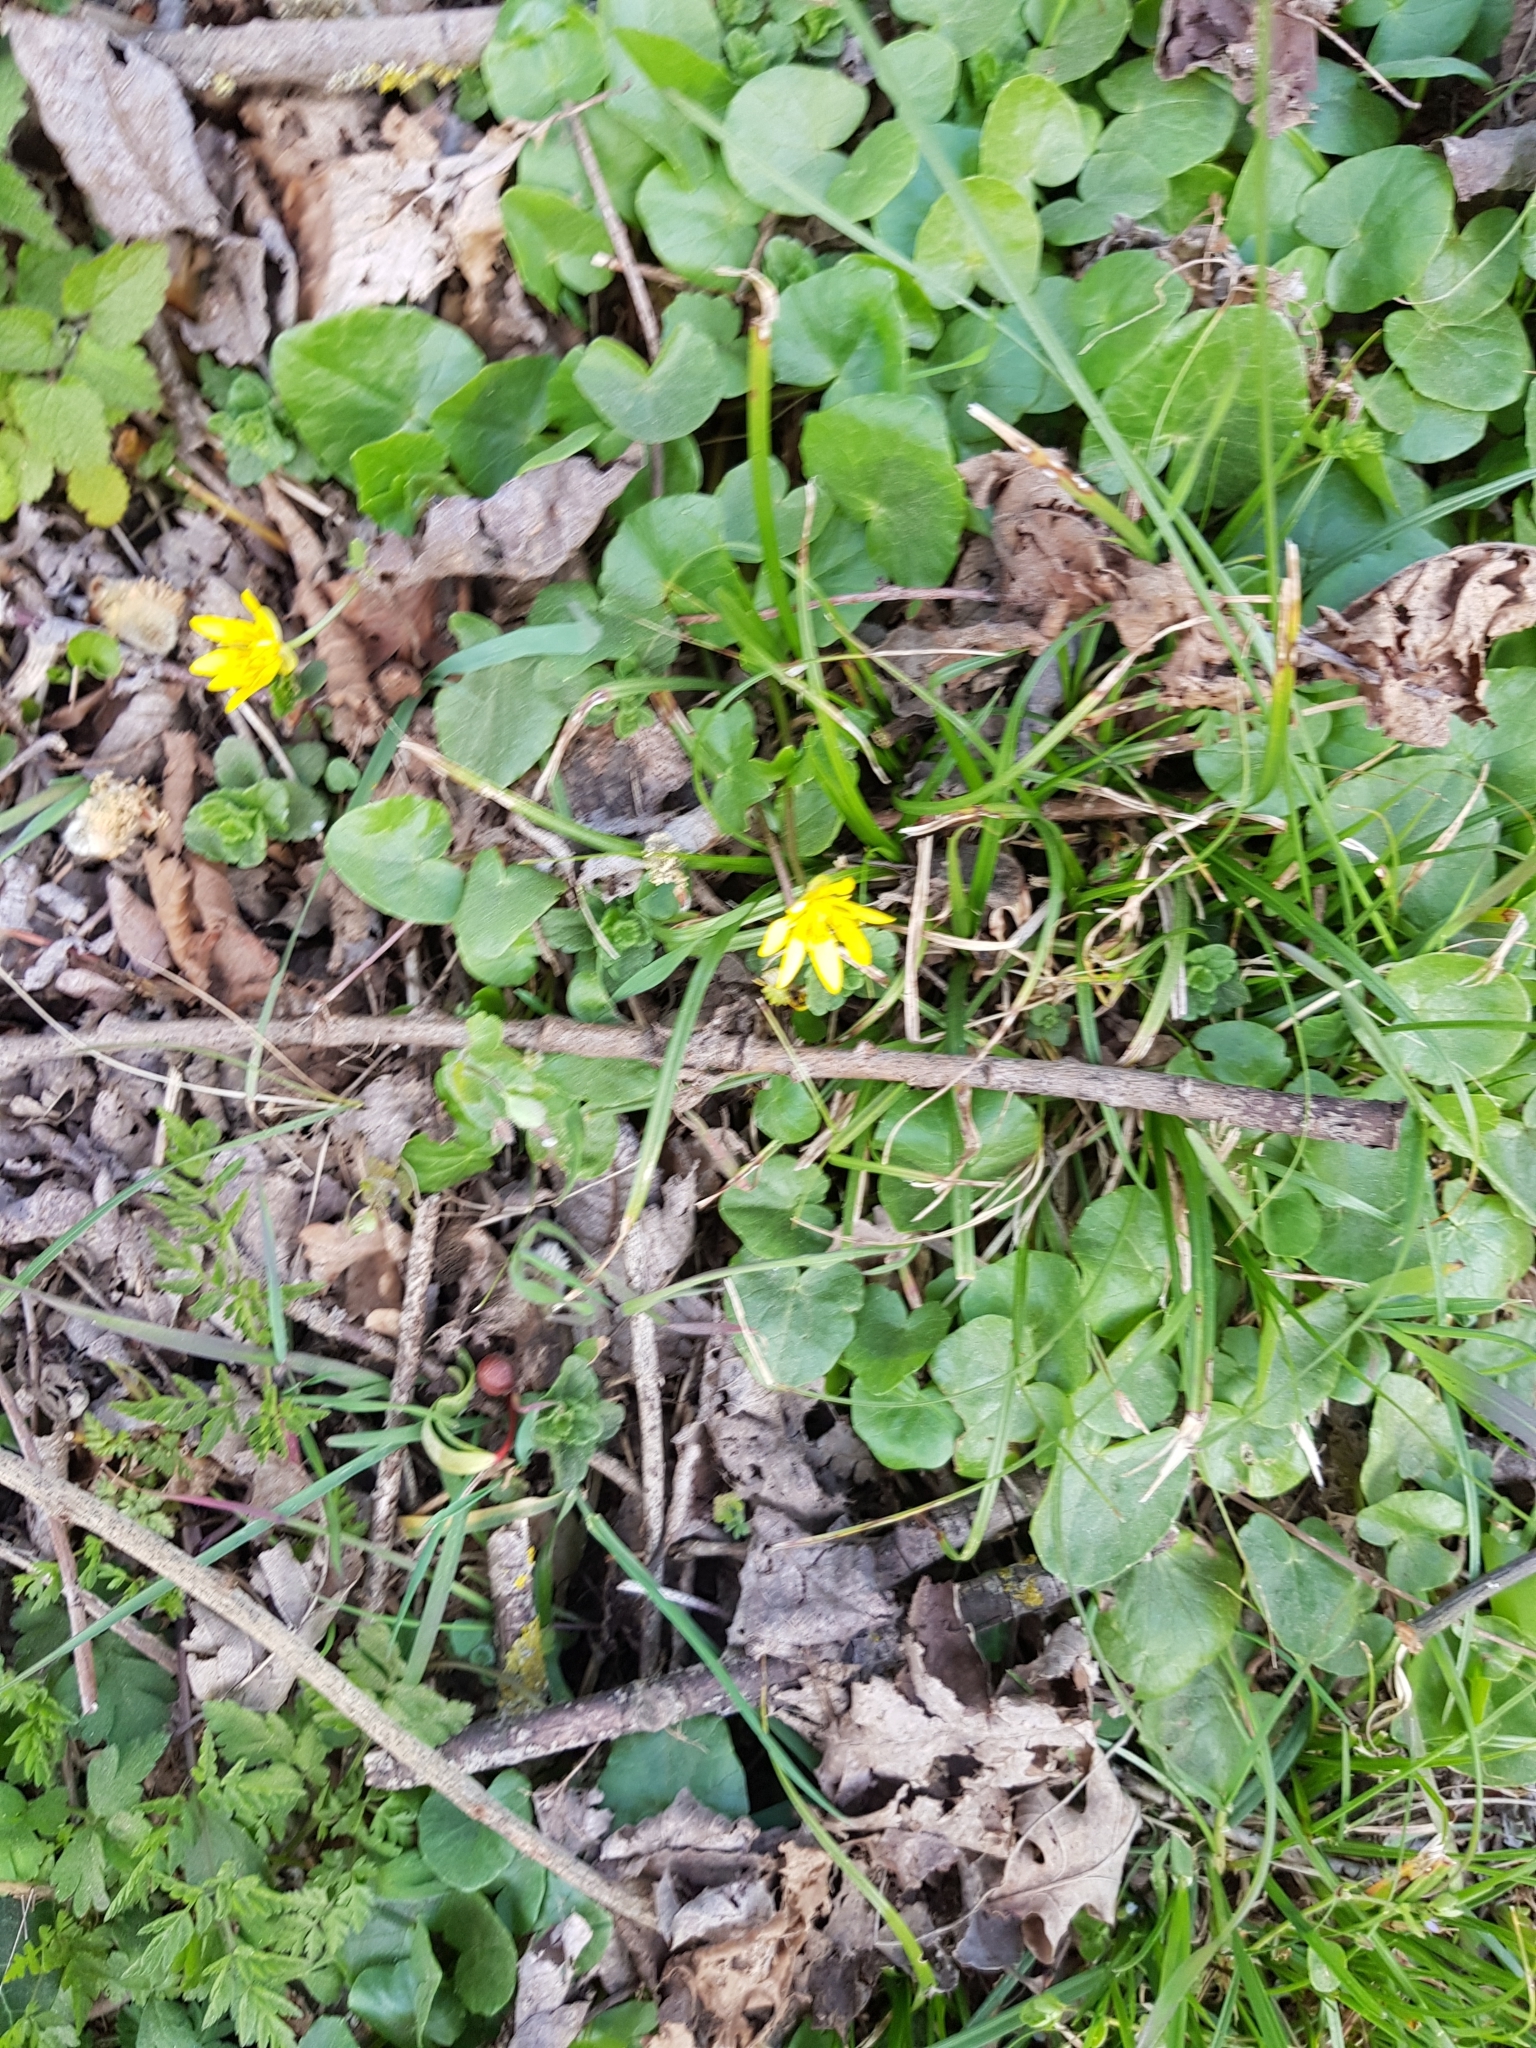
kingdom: Plantae
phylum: Tracheophyta
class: Magnoliopsida
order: Ranunculales
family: Ranunculaceae
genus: Ficaria
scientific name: Ficaria verna
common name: Lesser celandine
